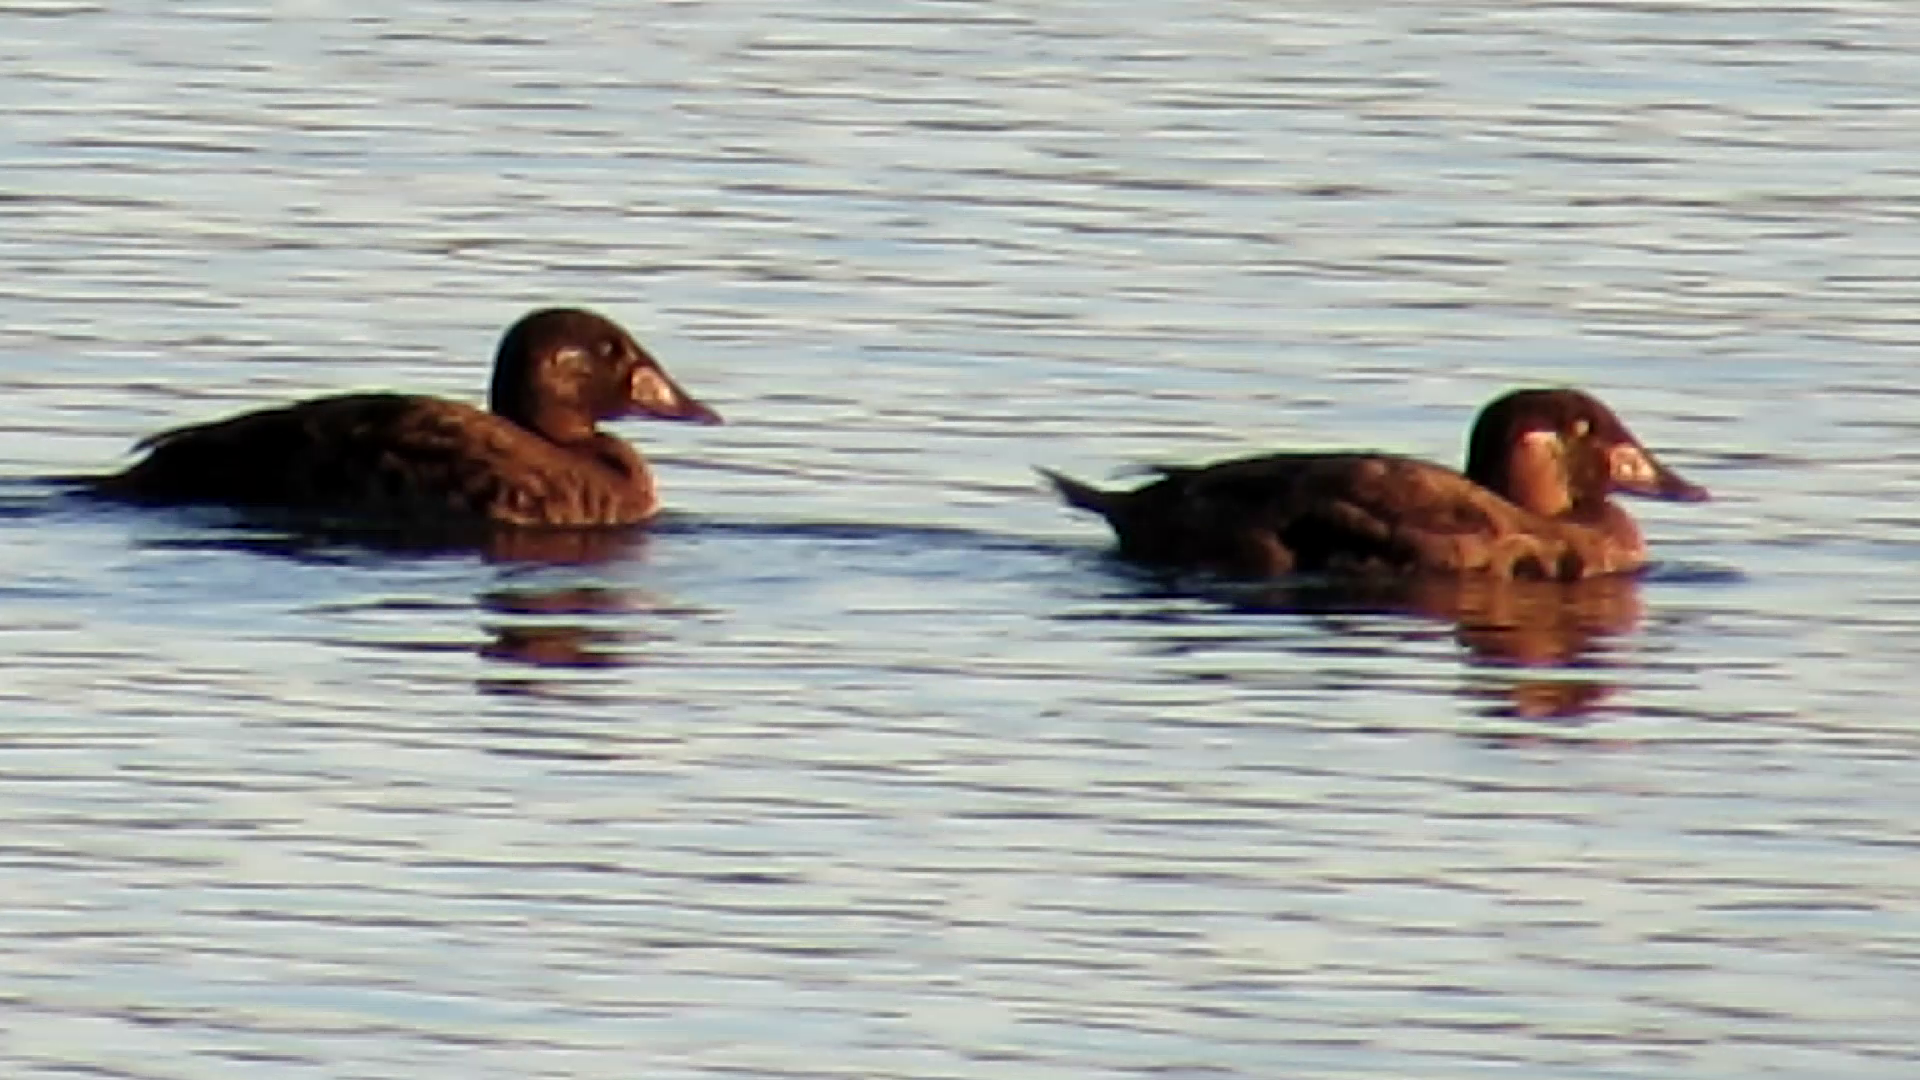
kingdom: Animalia
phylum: Chordata
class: Aves
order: Anseriformes
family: Anatidae
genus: Melanitta
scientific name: Melanitta perspicillata
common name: Surf scoter
